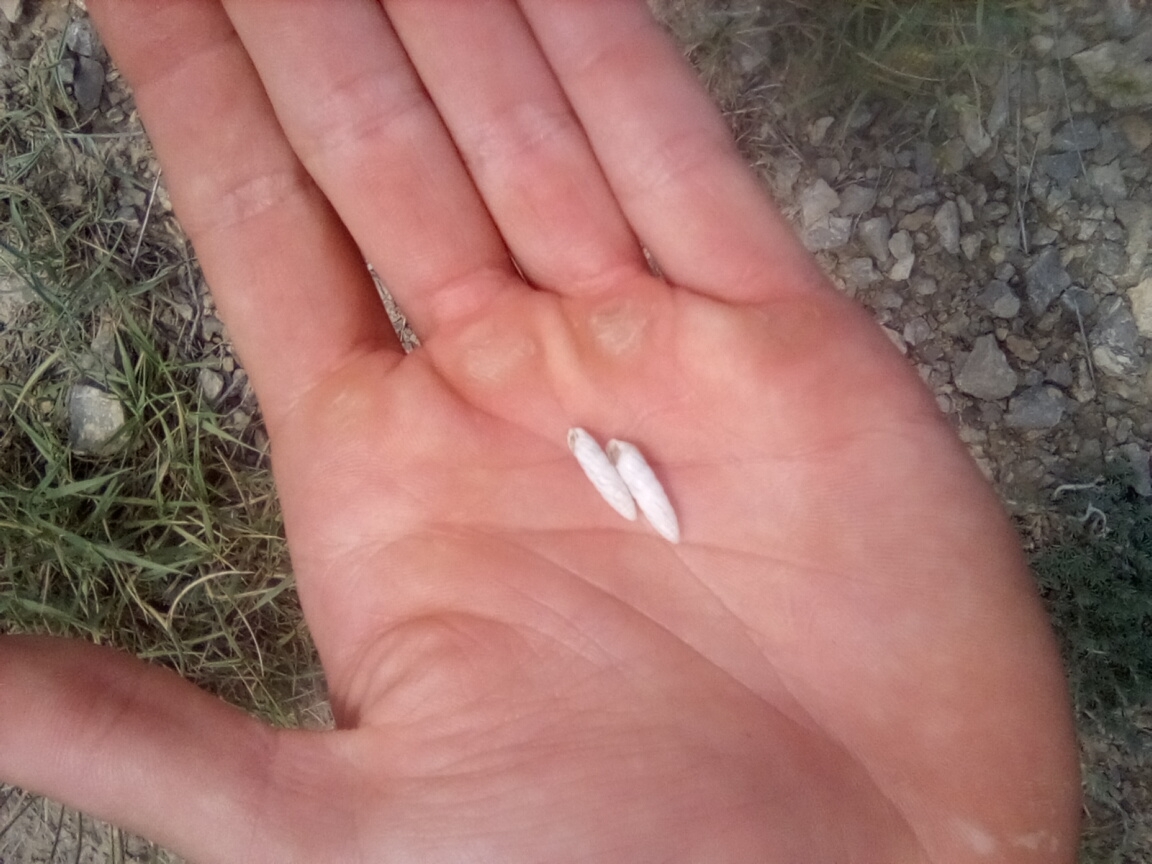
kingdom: Animalia
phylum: Mollusca
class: Gastropoda
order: Stylommatophora
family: Enidae
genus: Brephulopsis
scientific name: Brephulopsis bidens
